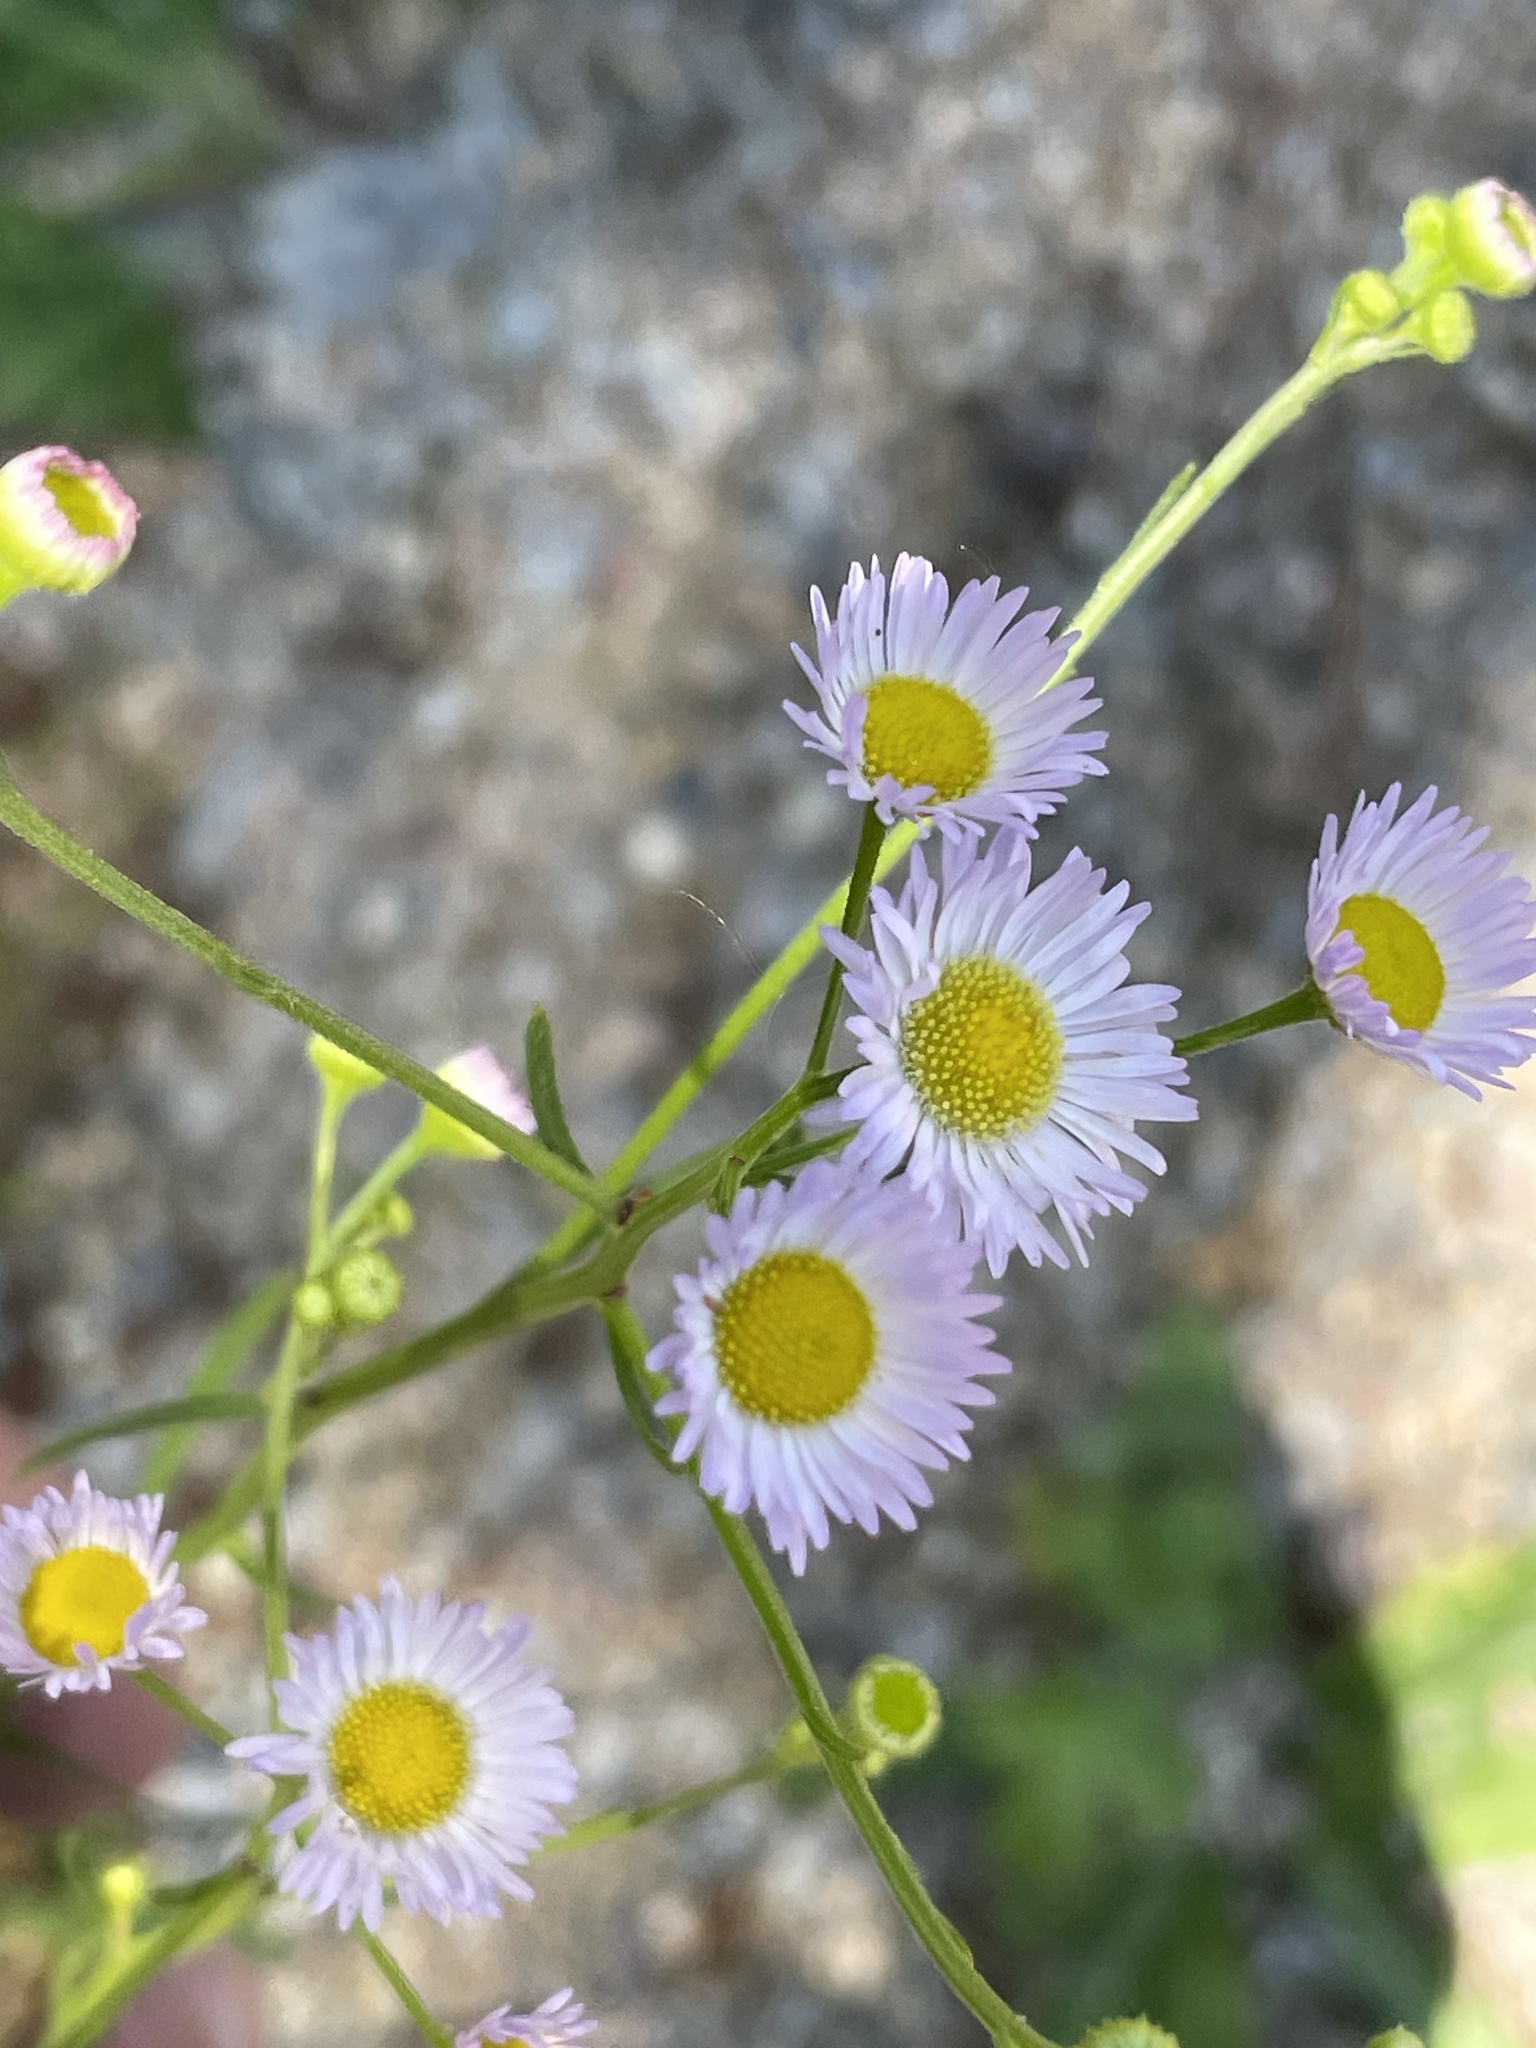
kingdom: Plantae
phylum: Tracheophyta
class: Magnoliopsida
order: Asterales
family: Asteraceae
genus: Erigeron
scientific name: Erigeron strigosus
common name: Common eastern fleabane
